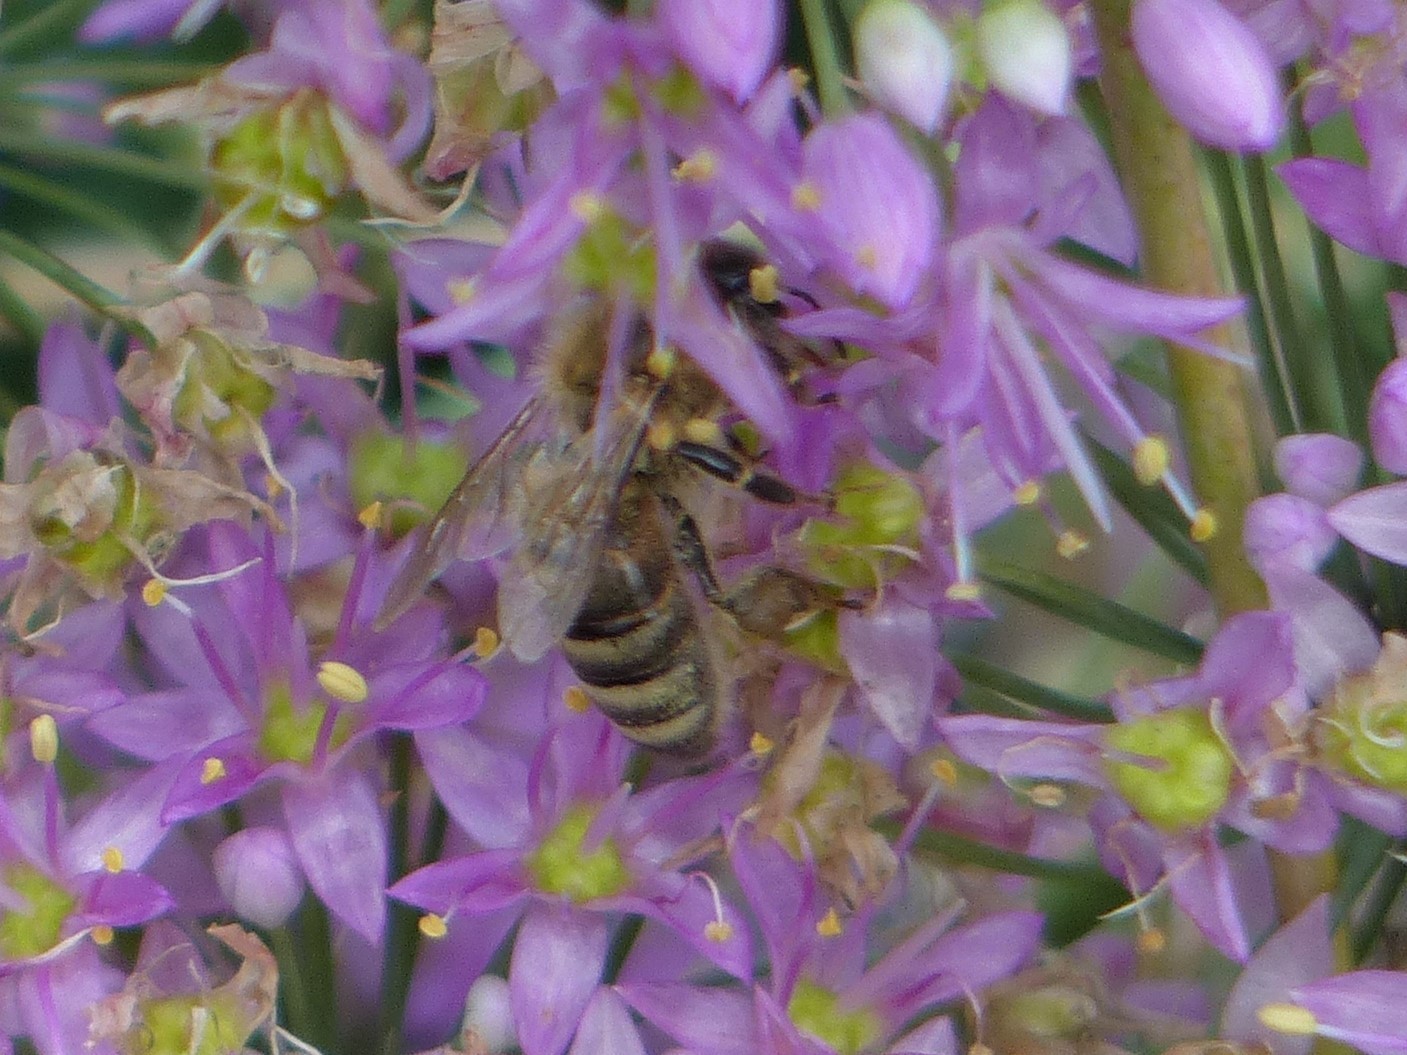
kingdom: Animalia
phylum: Arthropoda
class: Insecta
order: Hymenoptera
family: Apidae
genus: Apis
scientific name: Apis mellifera
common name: Honey bee
